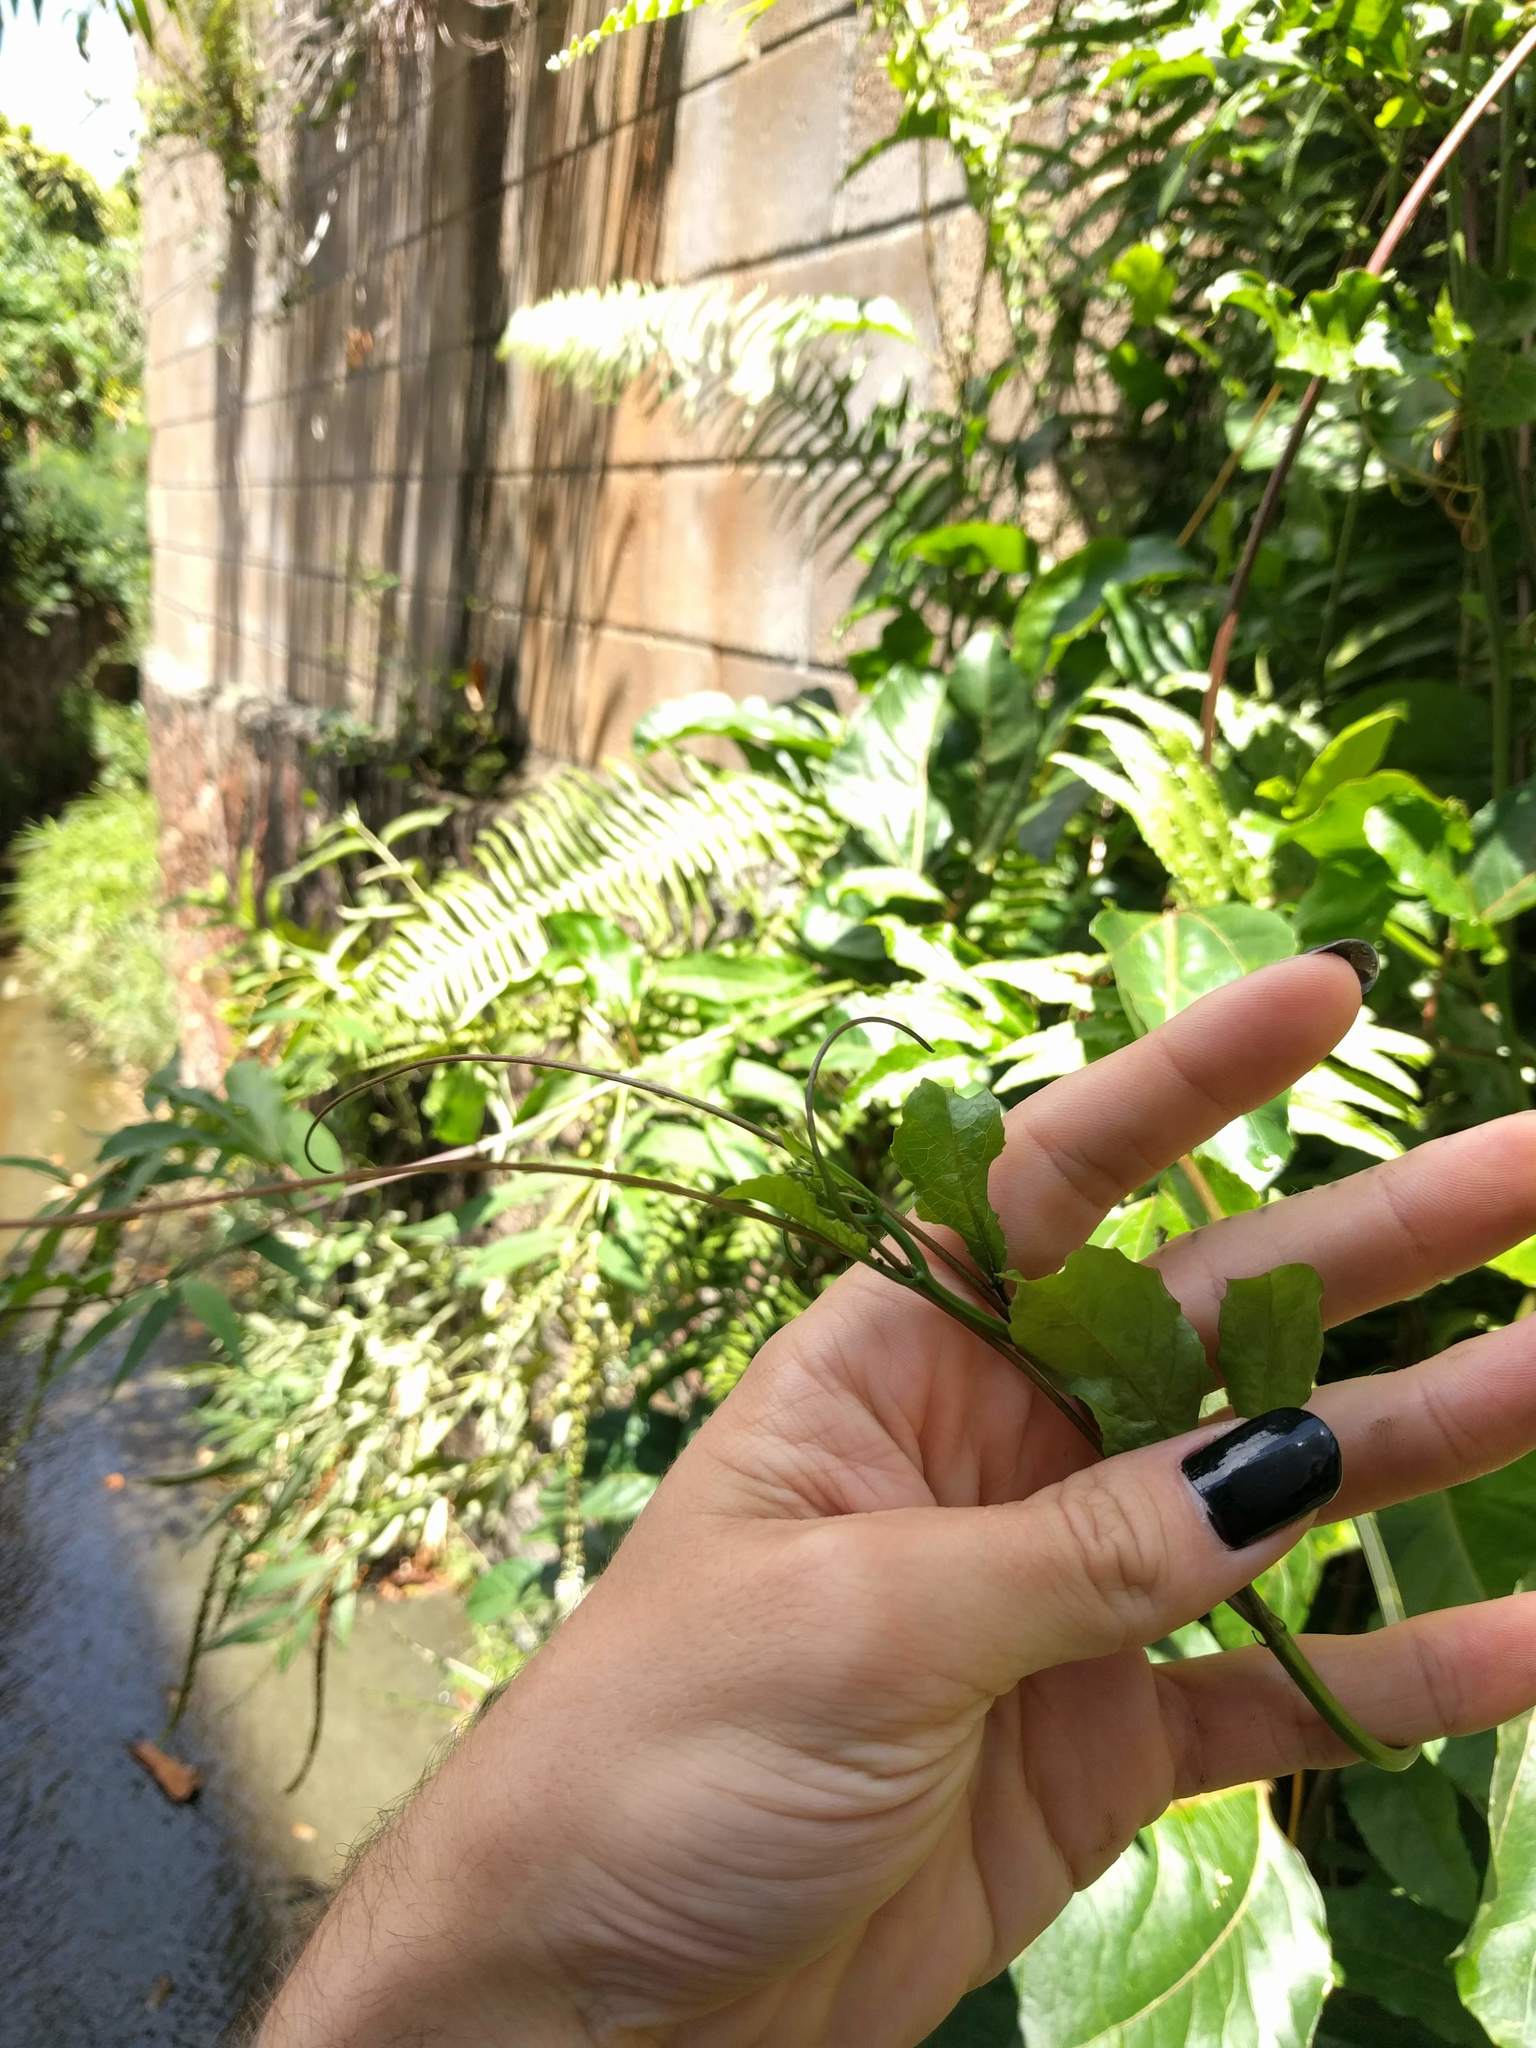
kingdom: Plantae
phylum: Tracheophyta
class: Magnoliopsida
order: Malpighiales
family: Passifloraceae
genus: Passiflora
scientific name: Passiflora edulis
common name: Purple granadilla
